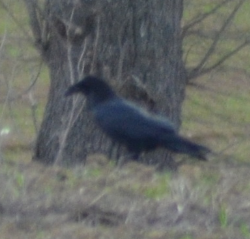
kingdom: Animalia
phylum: Chordata
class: Aves
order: Passeriformes
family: Corvidae
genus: Corvus
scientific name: Corvus corax
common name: Common raven
